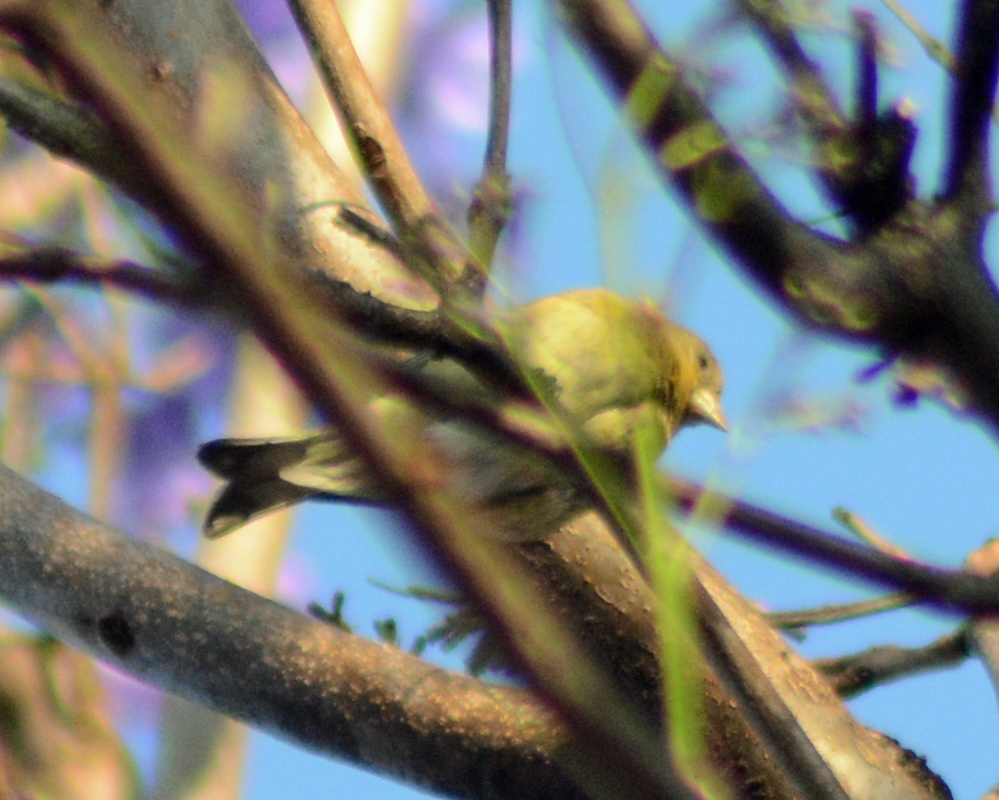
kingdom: Animalia
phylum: Chordata
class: Aves
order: Passeriformes
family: Fringillidae
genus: Spinus
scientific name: Spinus psaltria
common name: Lesser goldfinch
